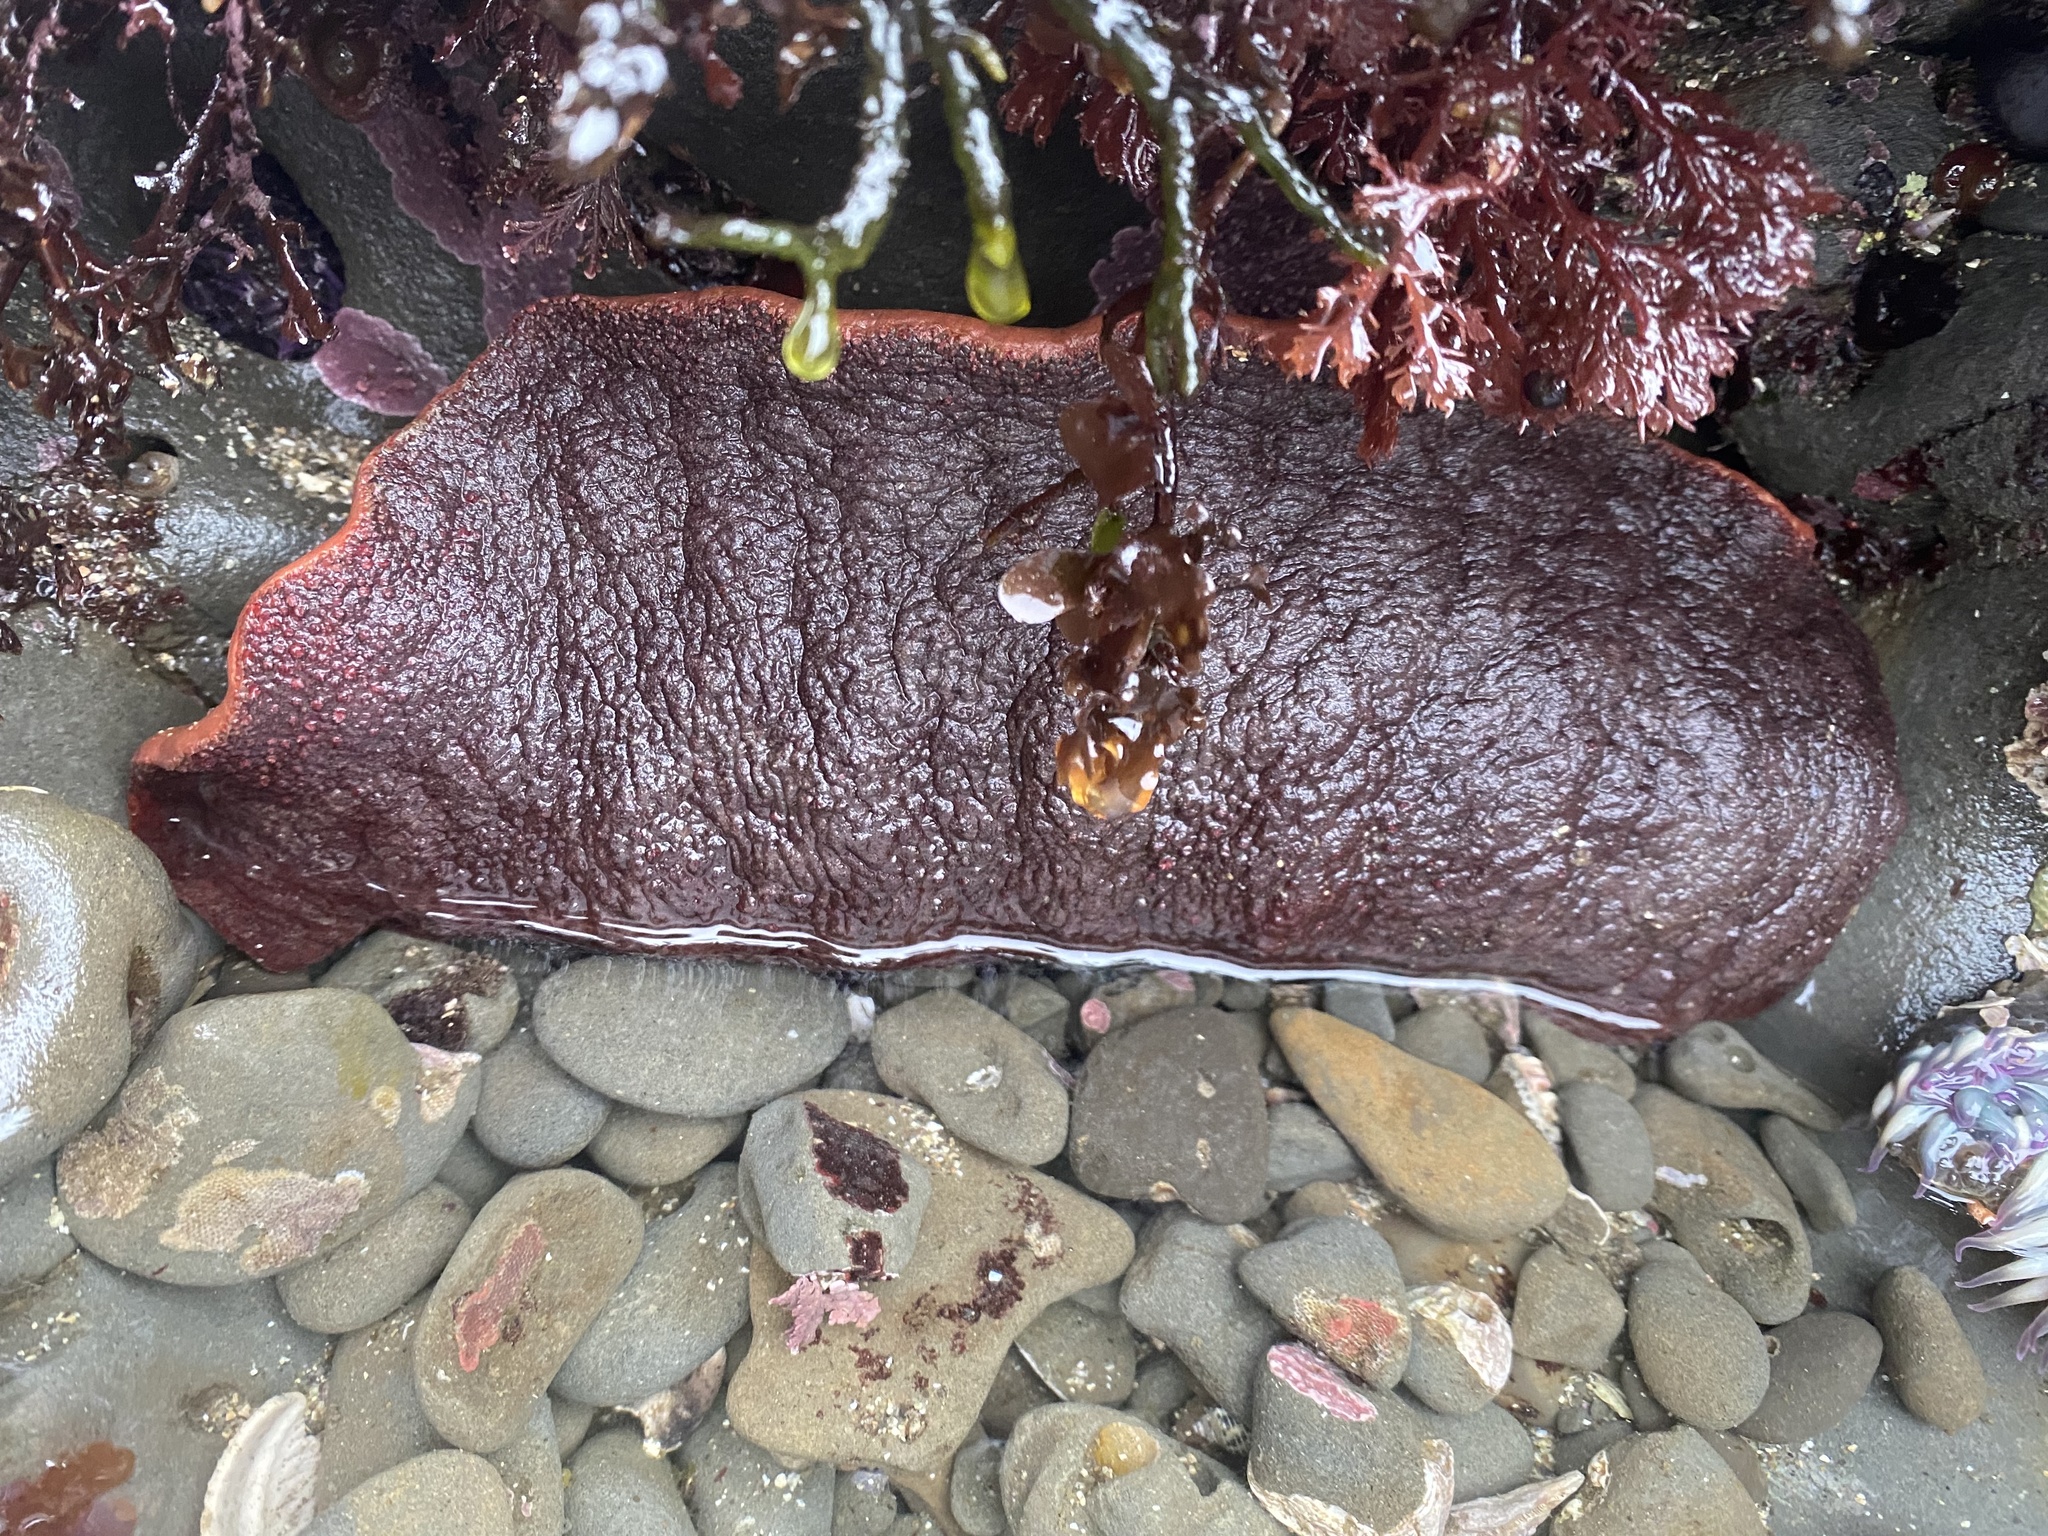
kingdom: Animalia
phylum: Mollusca
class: Polyplacophora
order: Chitonida
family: Acanthochitonidae
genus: Cryptochiton
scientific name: Cryptochiton stelleri
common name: Giant pacific chiton
